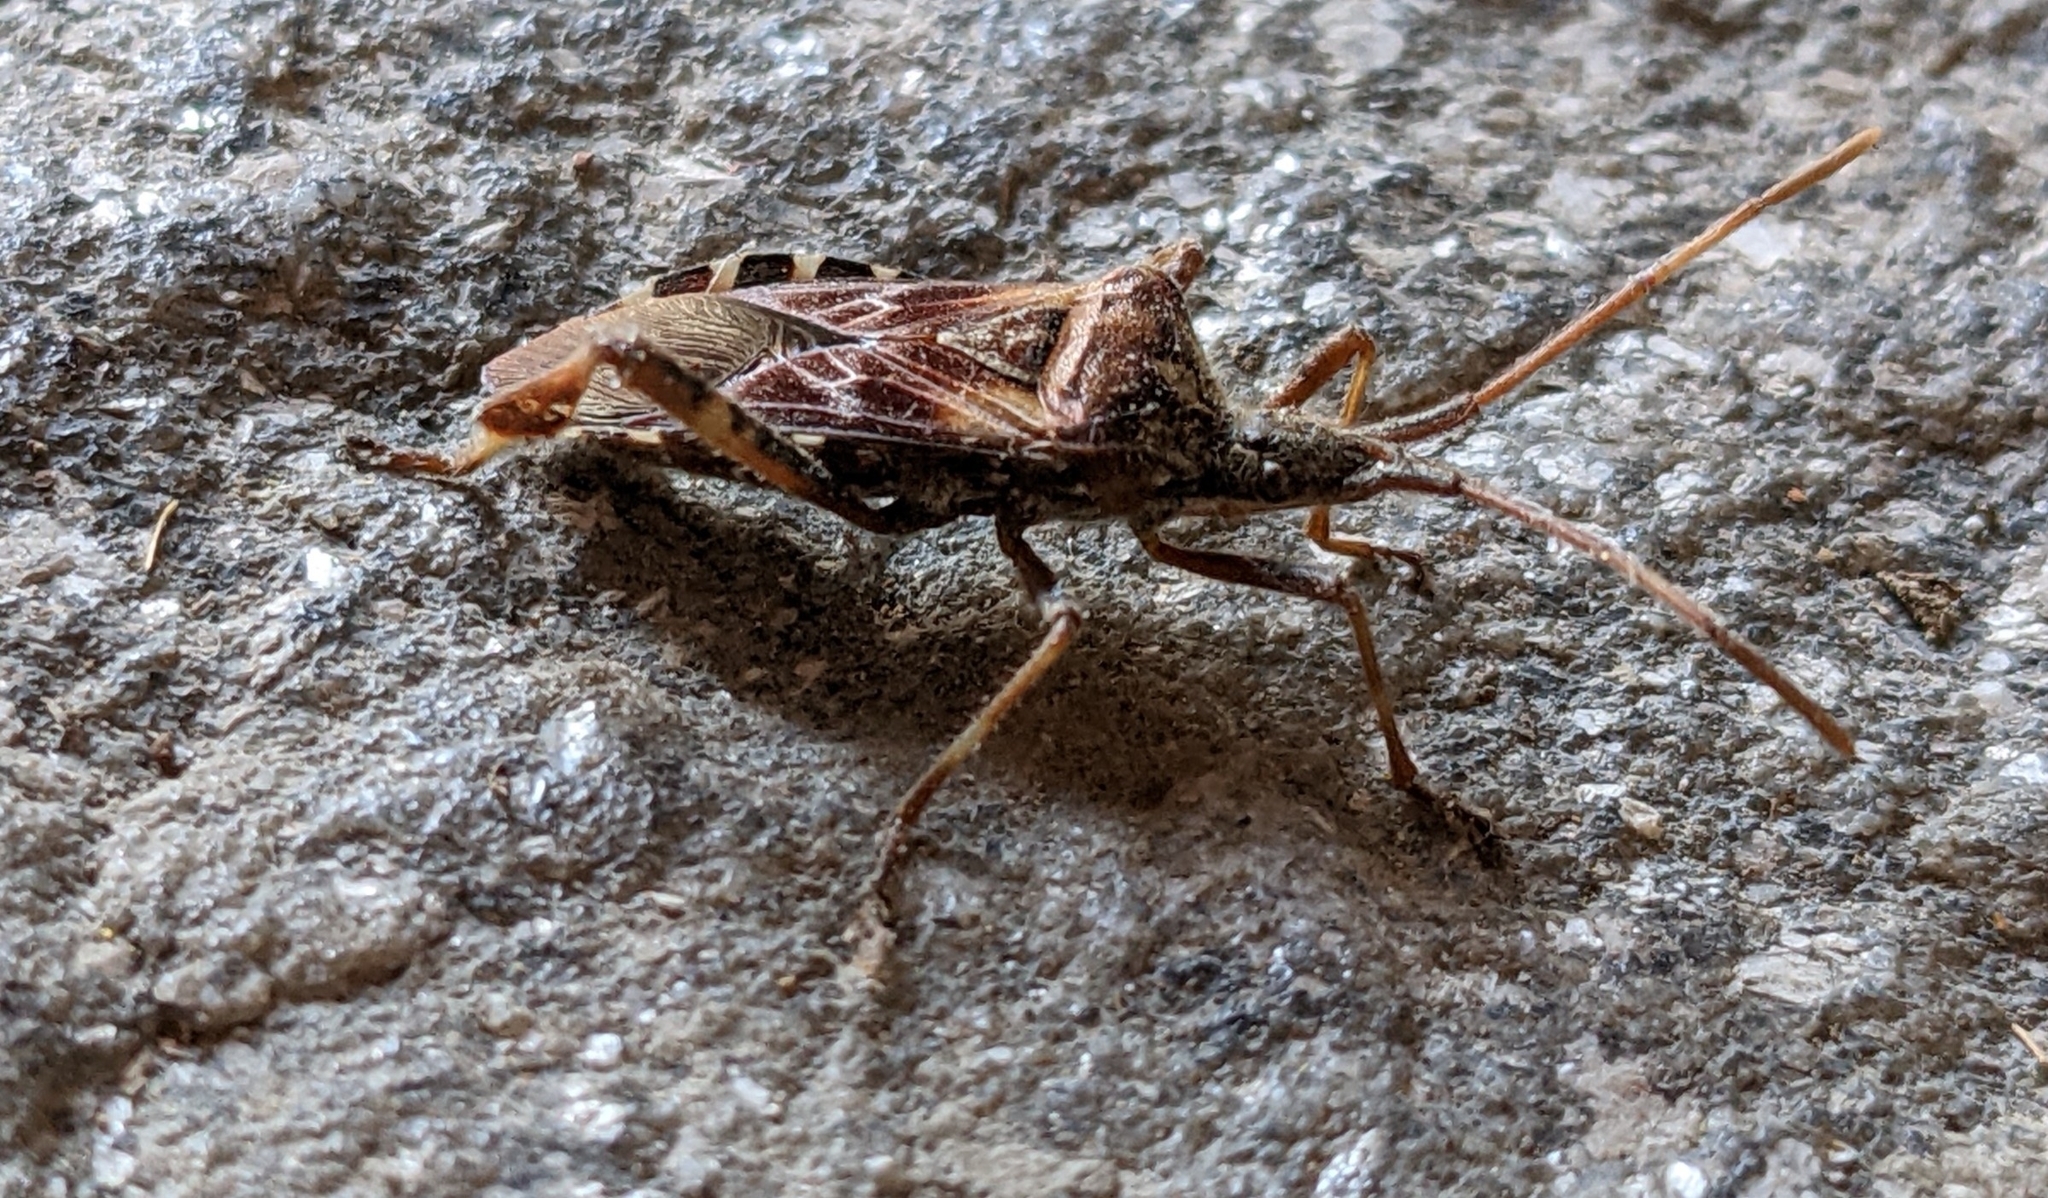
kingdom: Animalia
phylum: Arthropoda
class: Insecta
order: Hemiptera
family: Coreidae
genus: Leptoglossus
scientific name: Leptoglossus occidentalis
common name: Western conifer-seed bug
